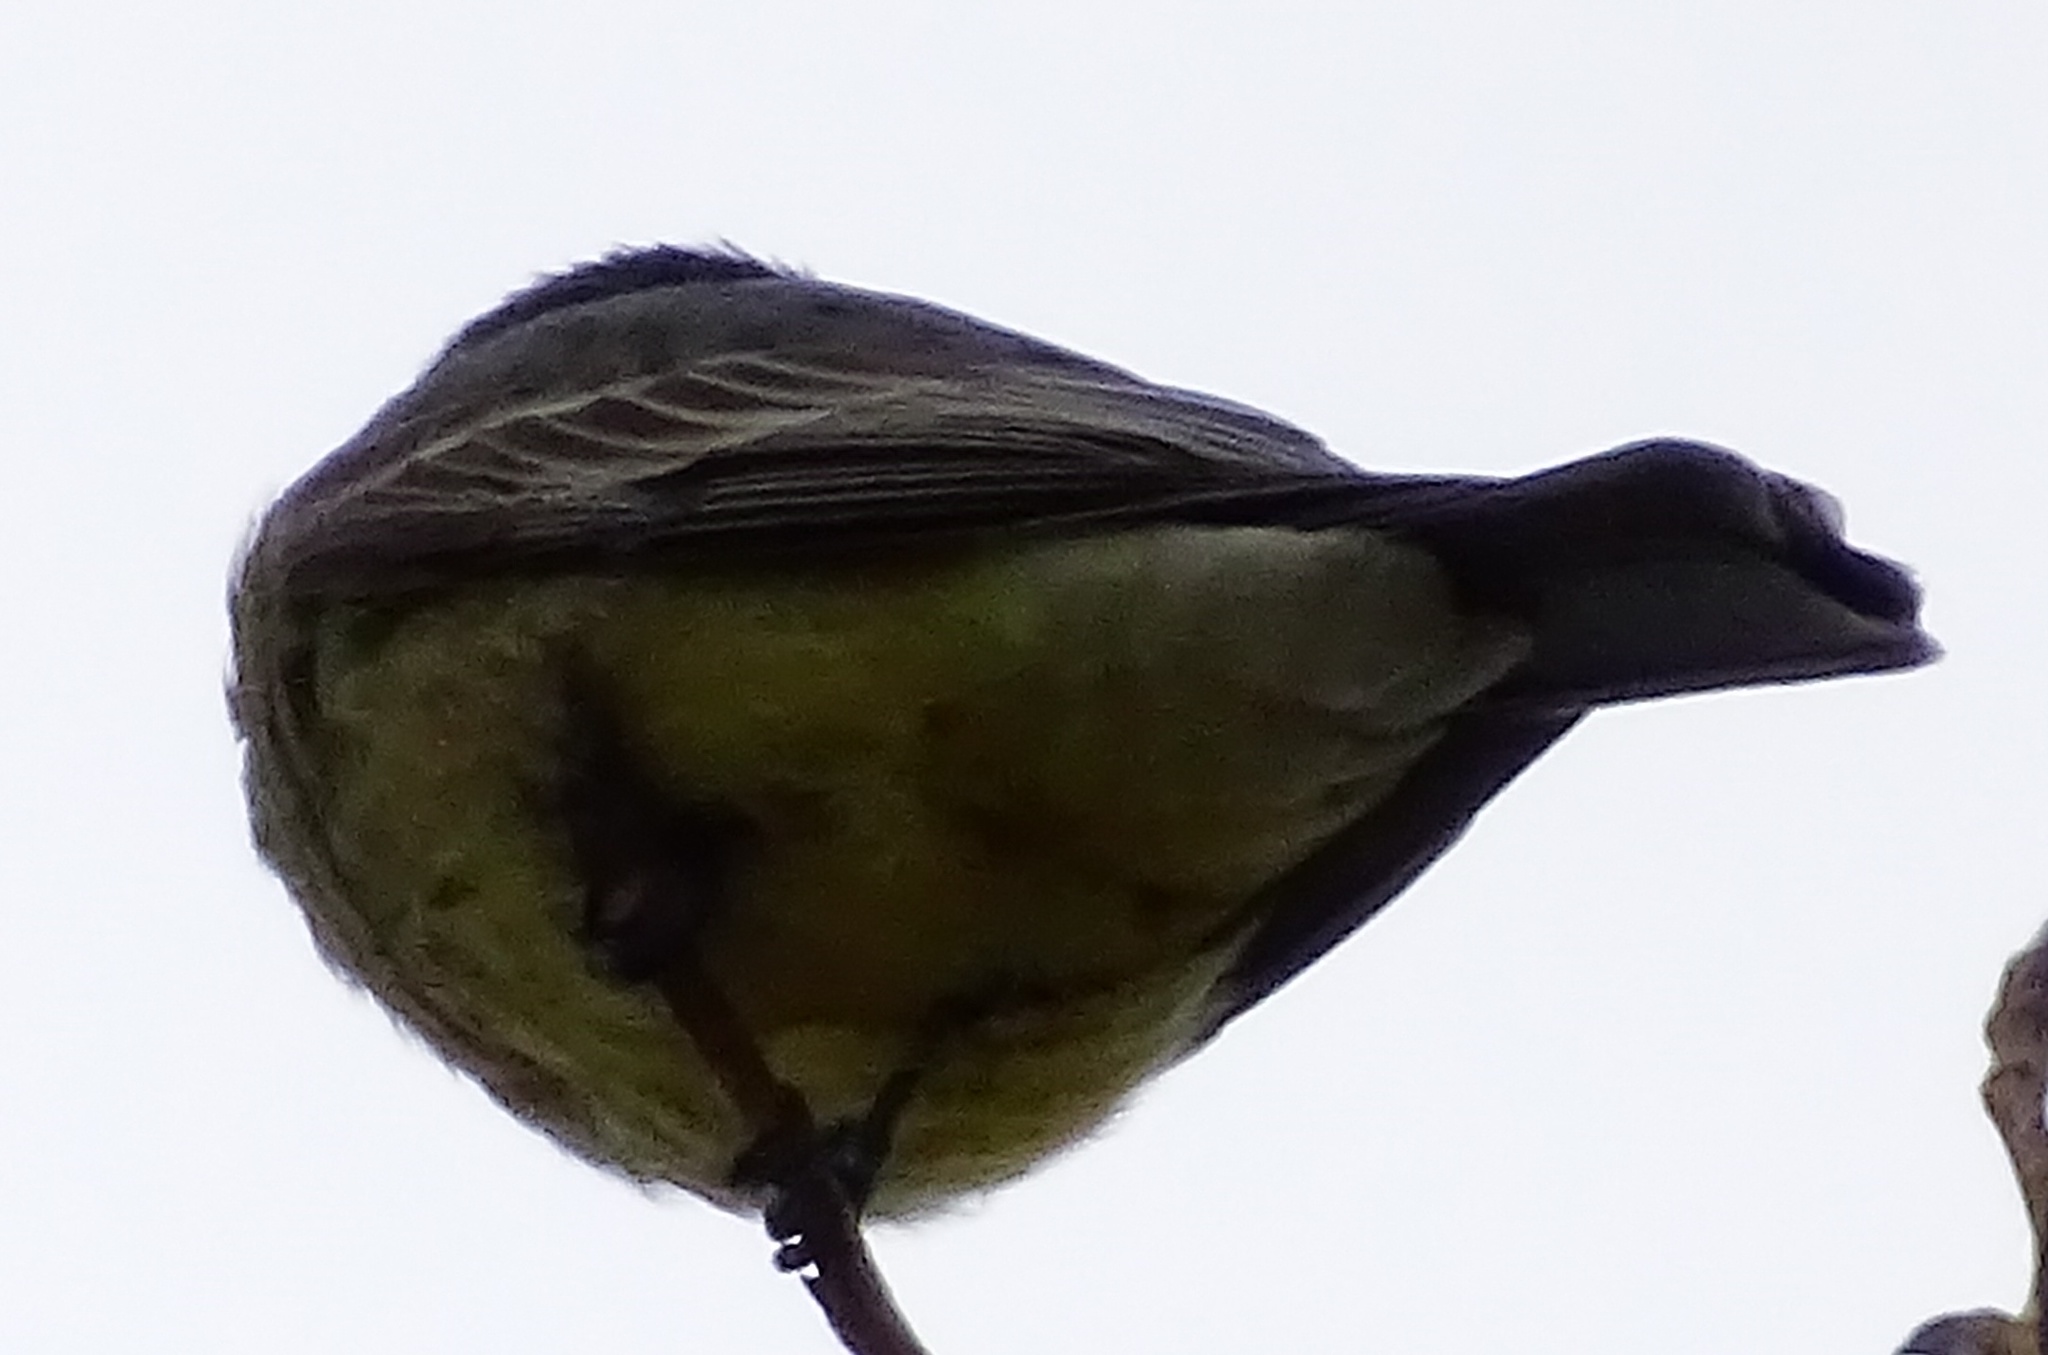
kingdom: Animalia
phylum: Chordata
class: Aves
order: Passeriformes
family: Tyrannidae
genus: Tyrannus
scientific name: Tyrannus vociferans
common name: Cassin's kingbird
